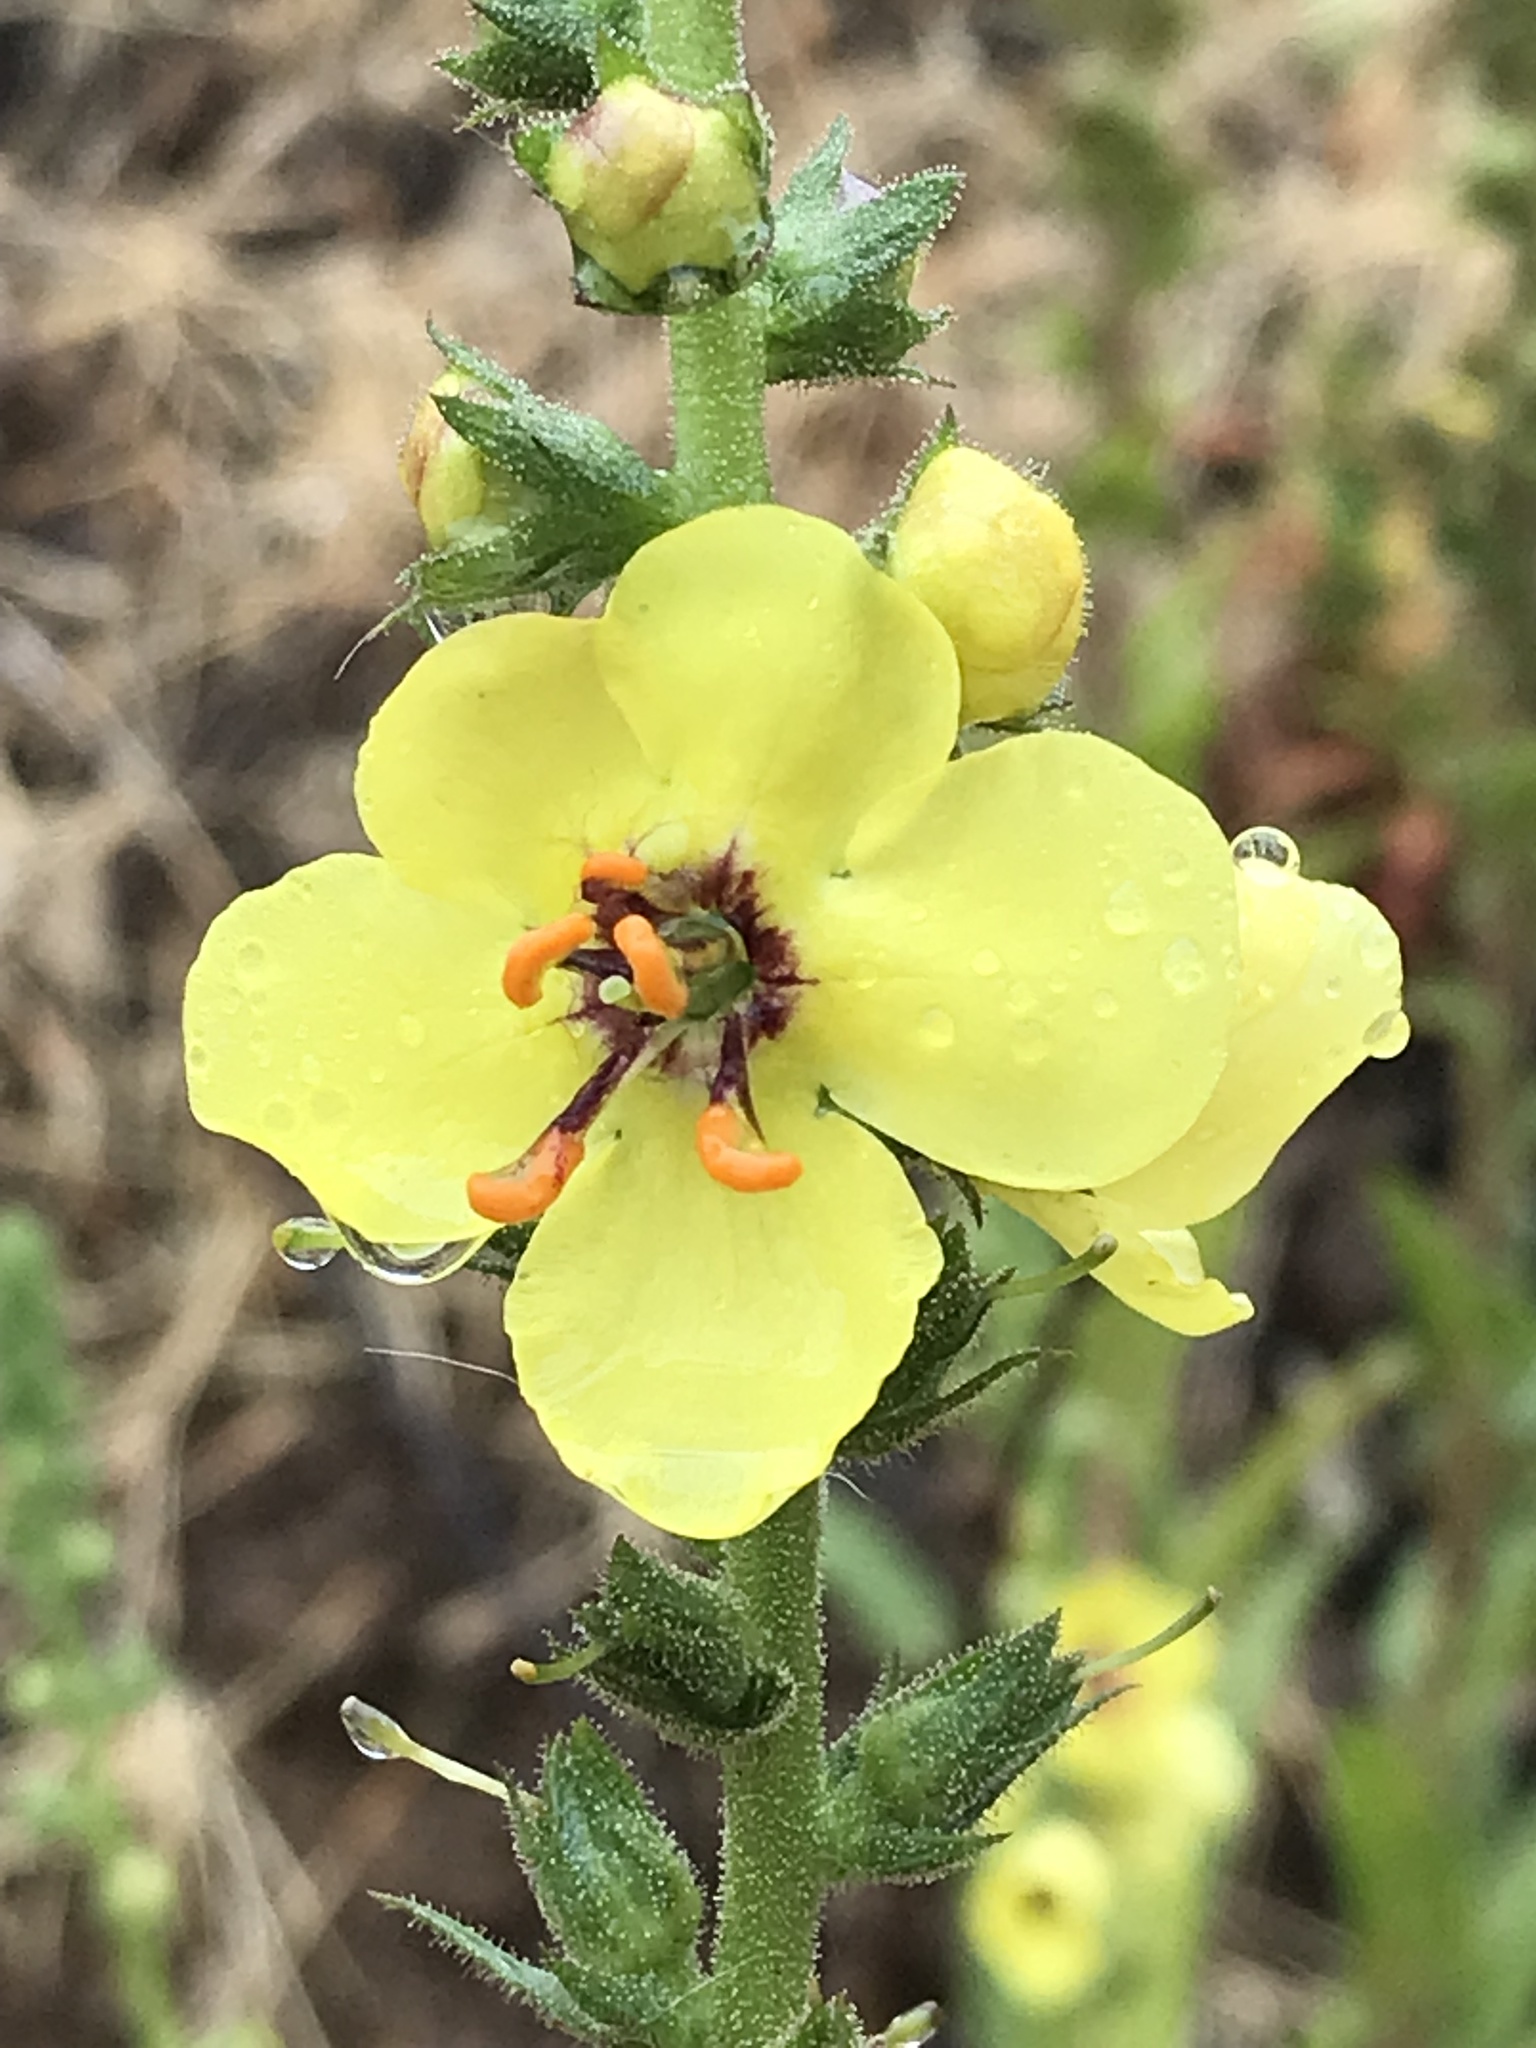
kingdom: Plantae
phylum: Tracheophyta
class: Magnoliopsida
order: Lamiales
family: Scrophulariaceae
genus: Verbascum
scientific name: Verbascum virgatum
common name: Twiggy mullein
